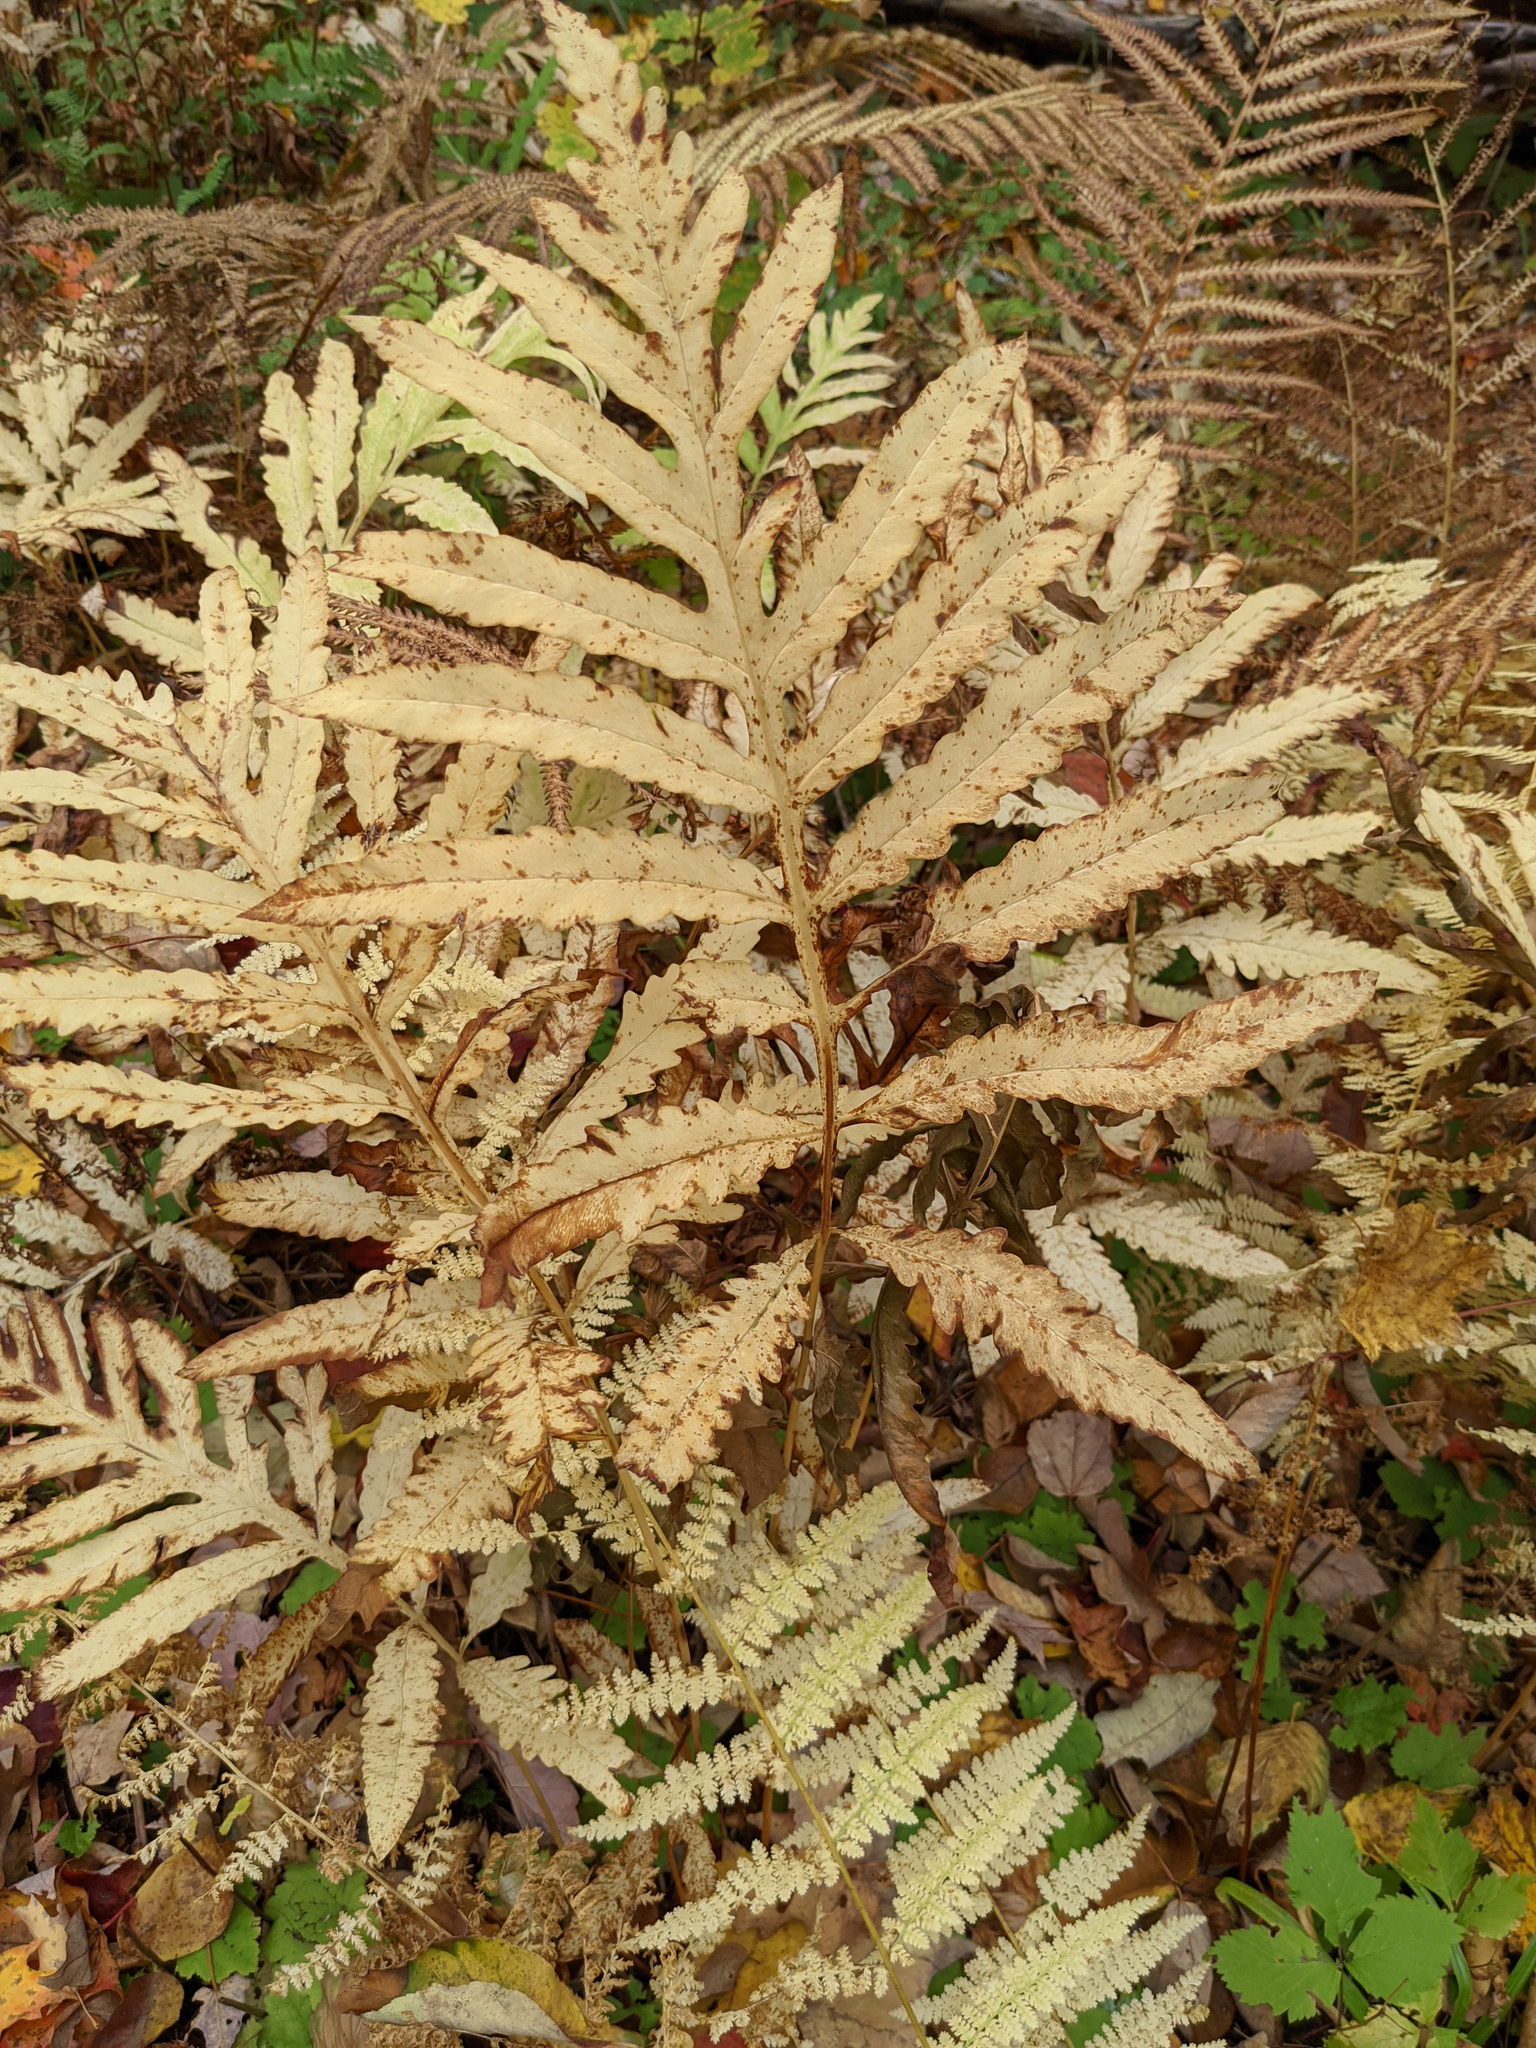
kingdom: Plantae
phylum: Tracheophyta
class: Polypodiopsida
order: Polypodiales
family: Onocleaceae
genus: Onoclea
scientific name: Onoclea sensibilis
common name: Sensitive fern
